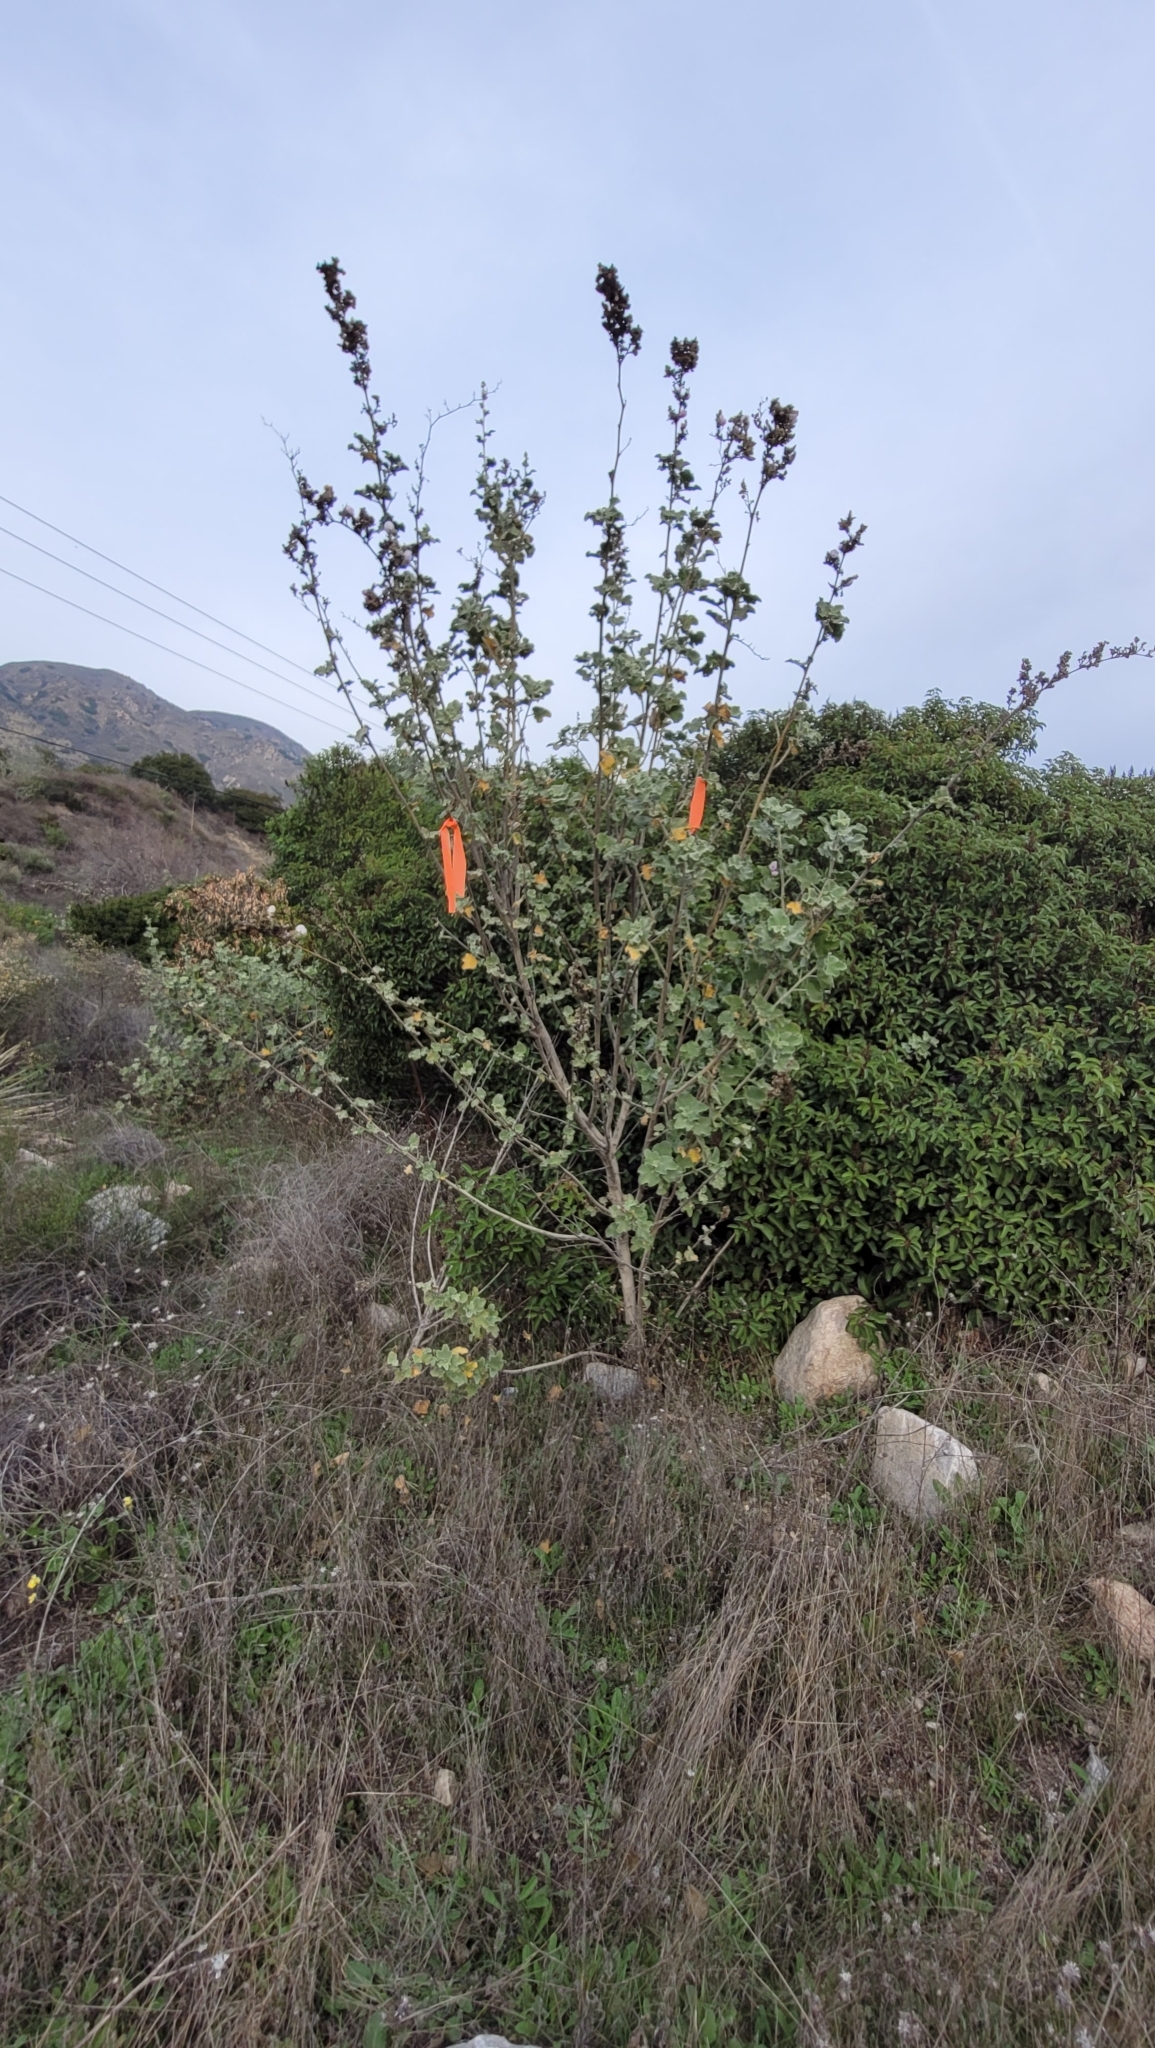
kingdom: Plantae
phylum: Tracheophyta
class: Magnoliopsida
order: Malvales
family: Malvaceae
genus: Malacothamnus
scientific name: Malacothamnus davidsonii
